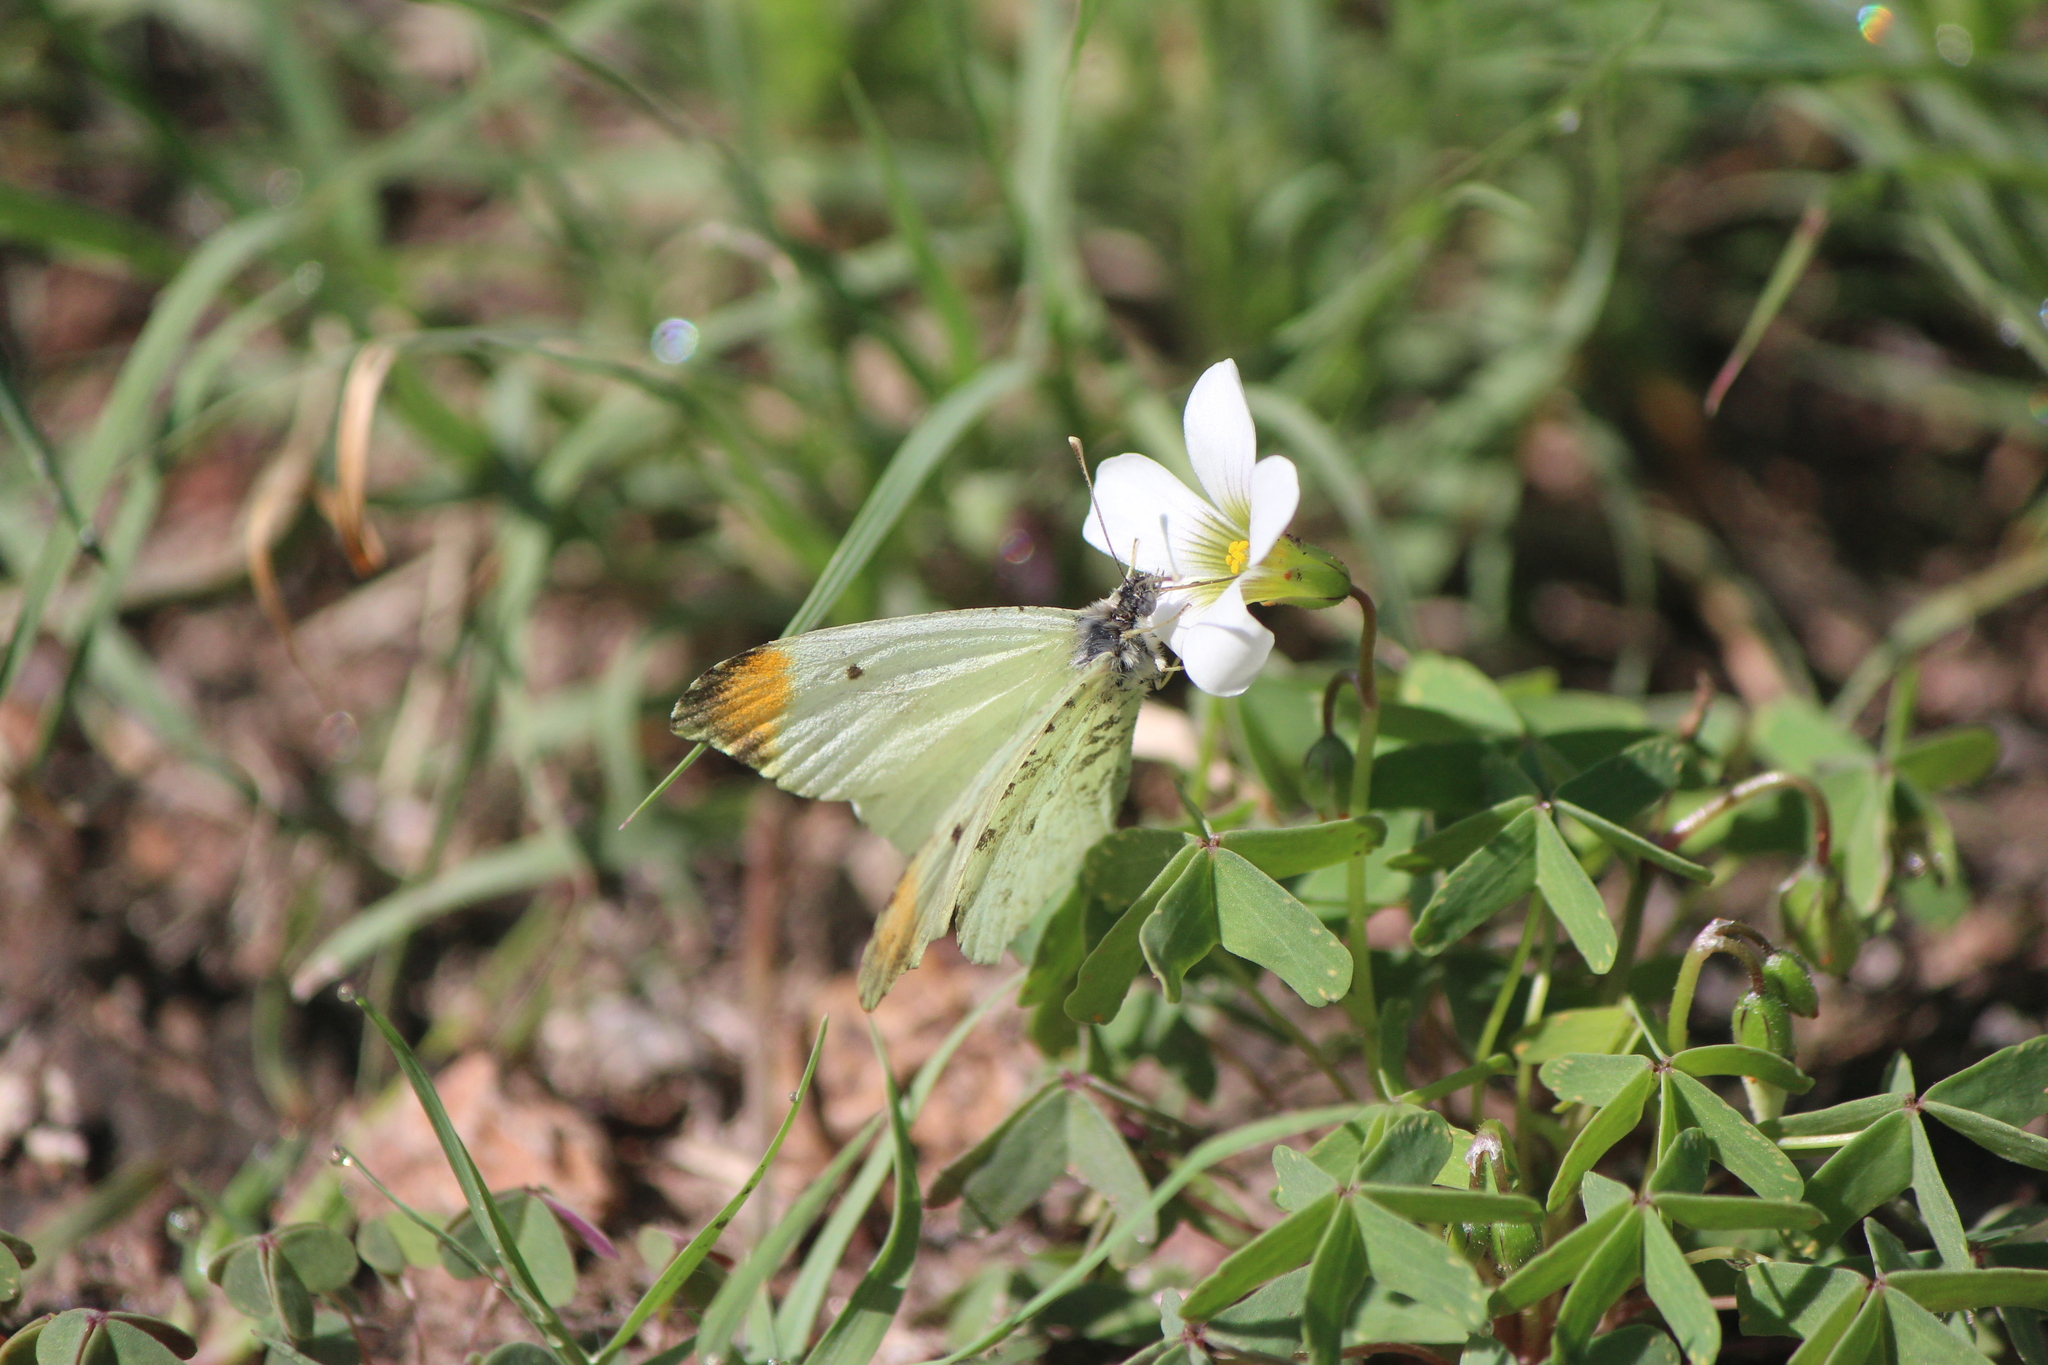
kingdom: Animalia
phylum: Arthropoda
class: Insecta
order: Lepidoptera
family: Pieridae
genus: Anthocharis
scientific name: Anthocharis limonea
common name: Mexican orangetip
